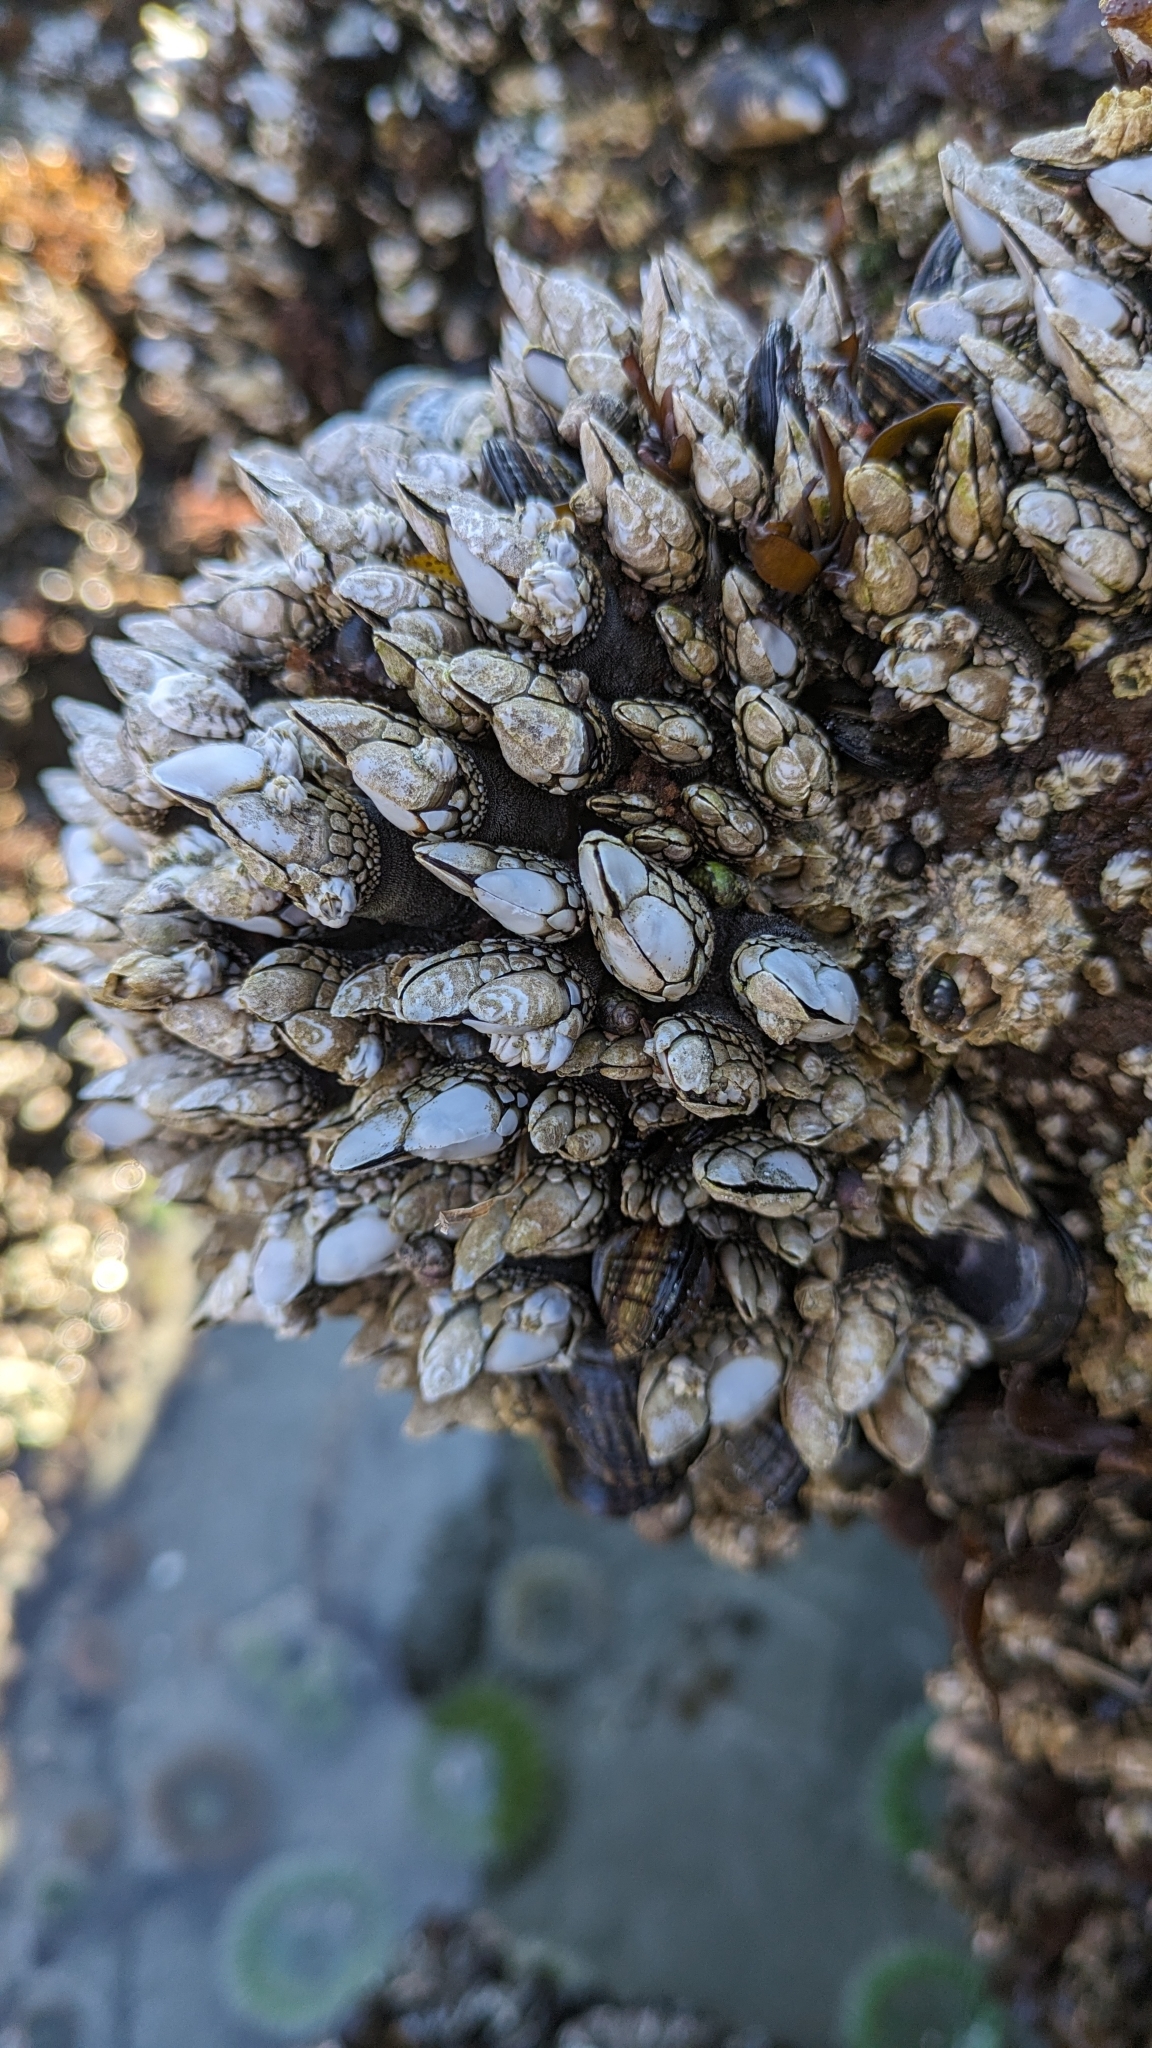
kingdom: Animalia
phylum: Arthropoda
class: Maxillopoda
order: Pedunculata
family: Pollicipedidae
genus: Pollicipes
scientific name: Pollicipes polymerus
